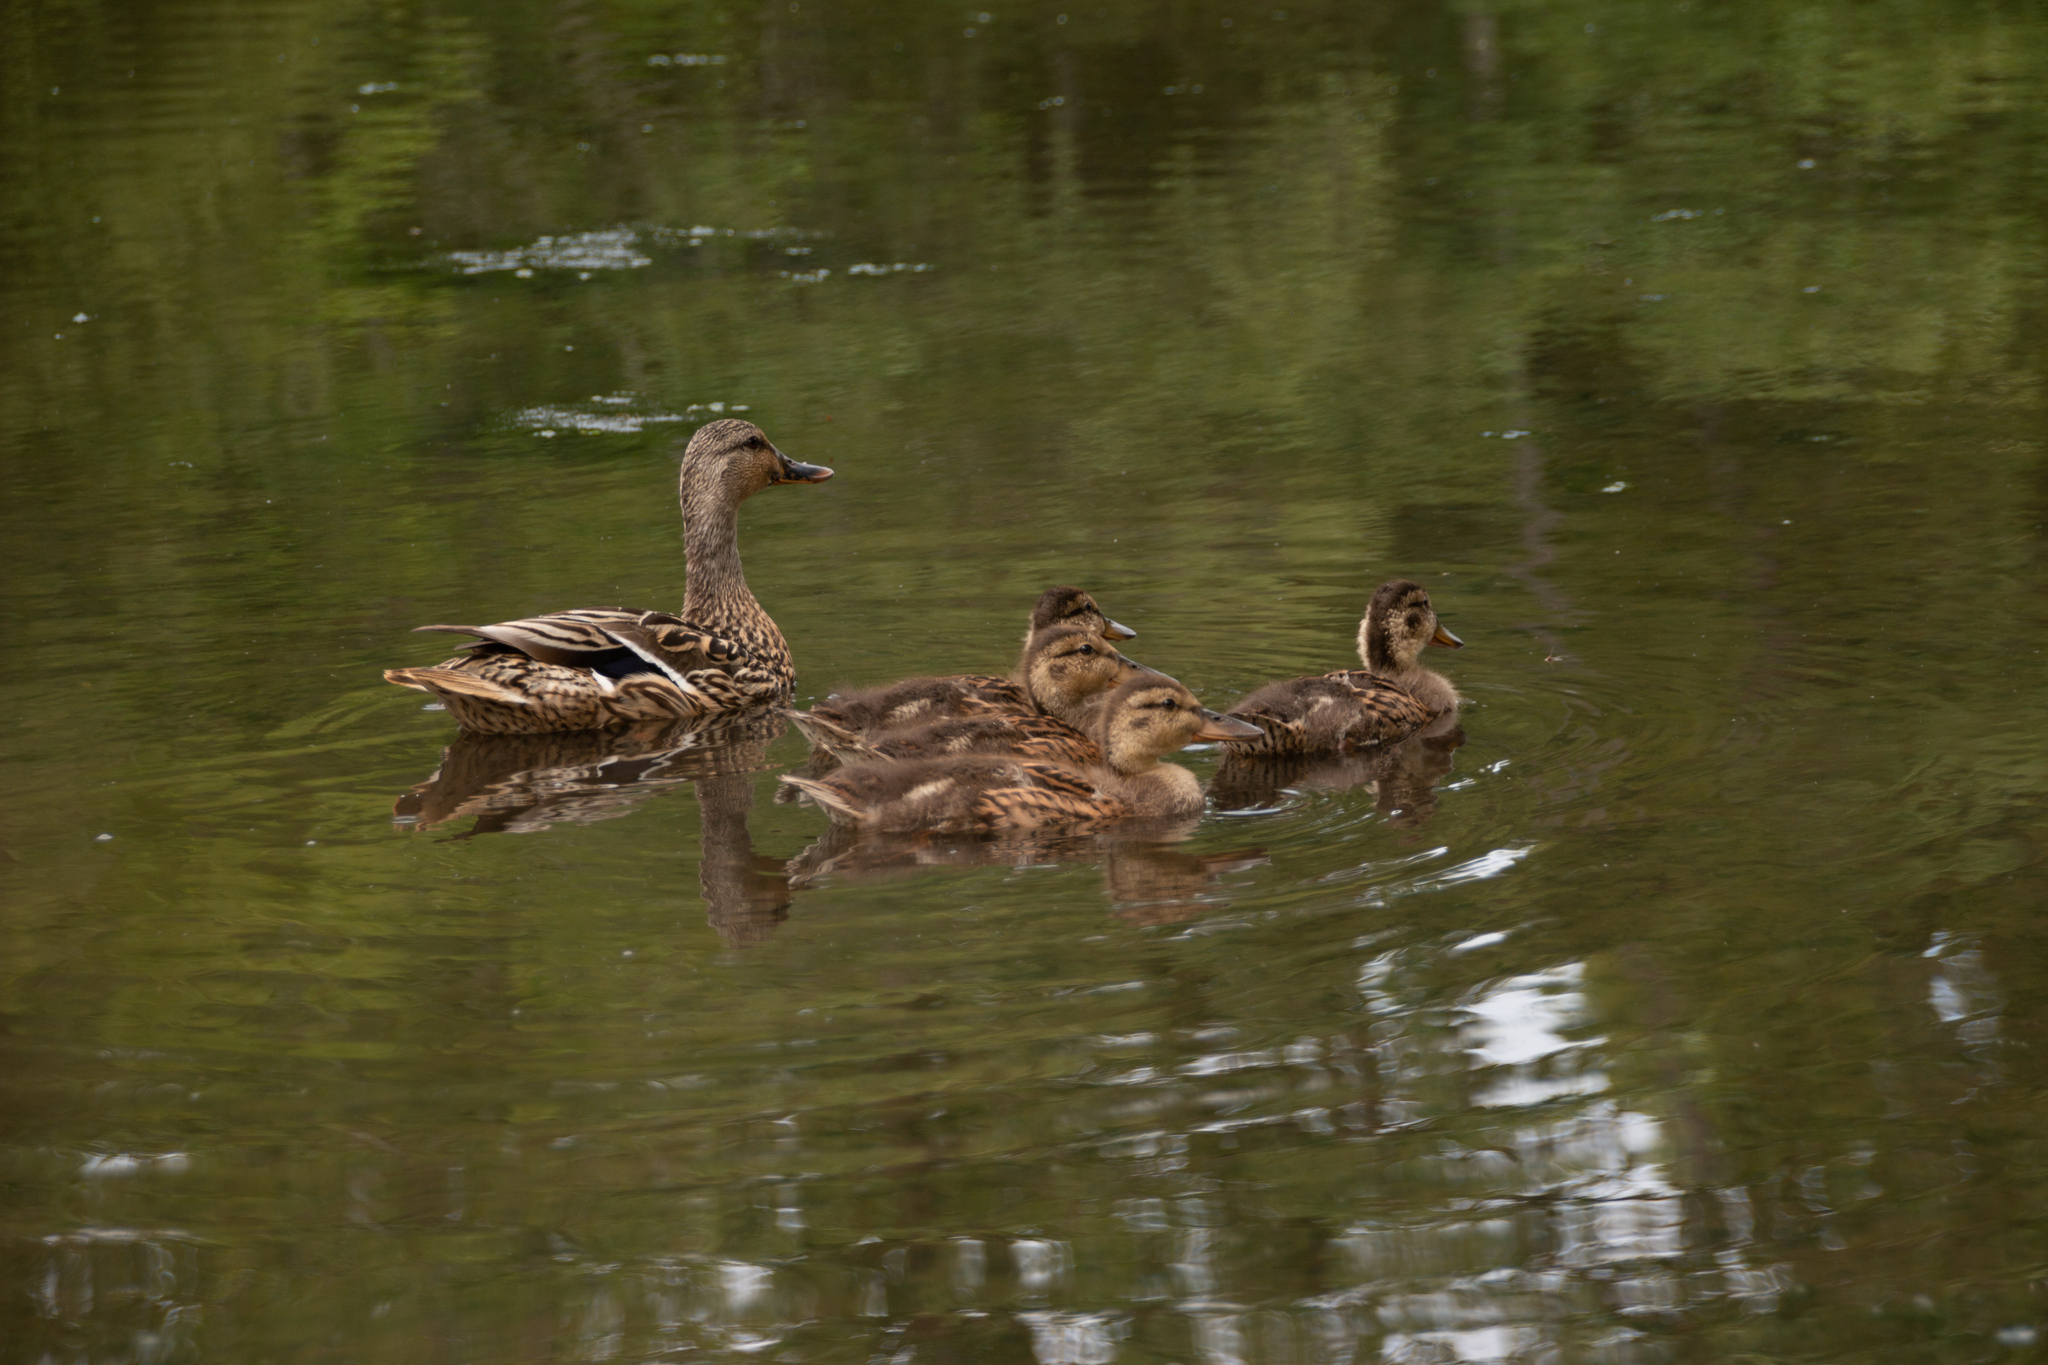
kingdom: Animalia
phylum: Chordata
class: Aves
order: Anseriformes
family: Anatidae
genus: Anas
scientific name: Anas platyrhynchos
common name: Mallard
